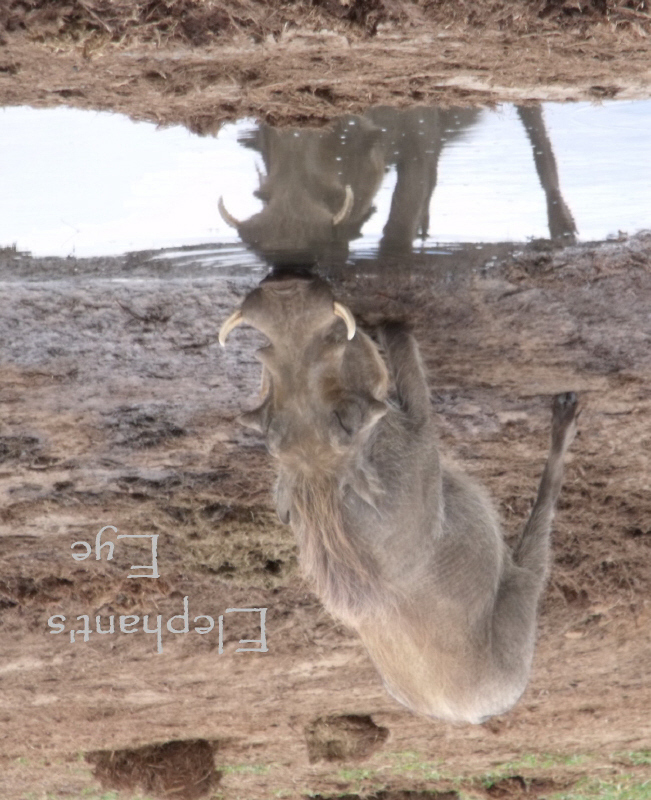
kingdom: Animalia
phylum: Chordata
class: Mammalia
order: Artiodactyla
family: Suidae
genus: Phacochoerus
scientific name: Phacochoerus africanus
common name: Common warthog
